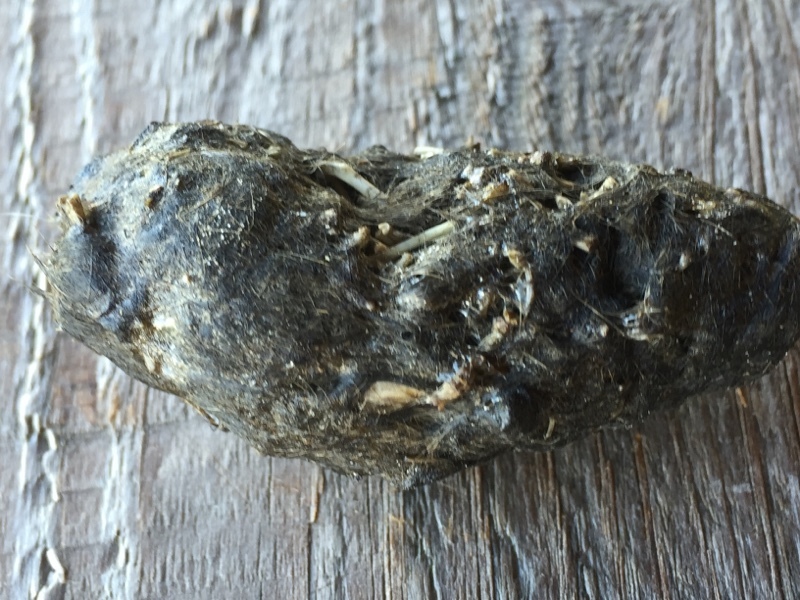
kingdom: Animalia
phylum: Chordata
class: Aves
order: Strigiformes
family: Tytonidae
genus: Tyto
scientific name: Tyto alba
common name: Barn owl
